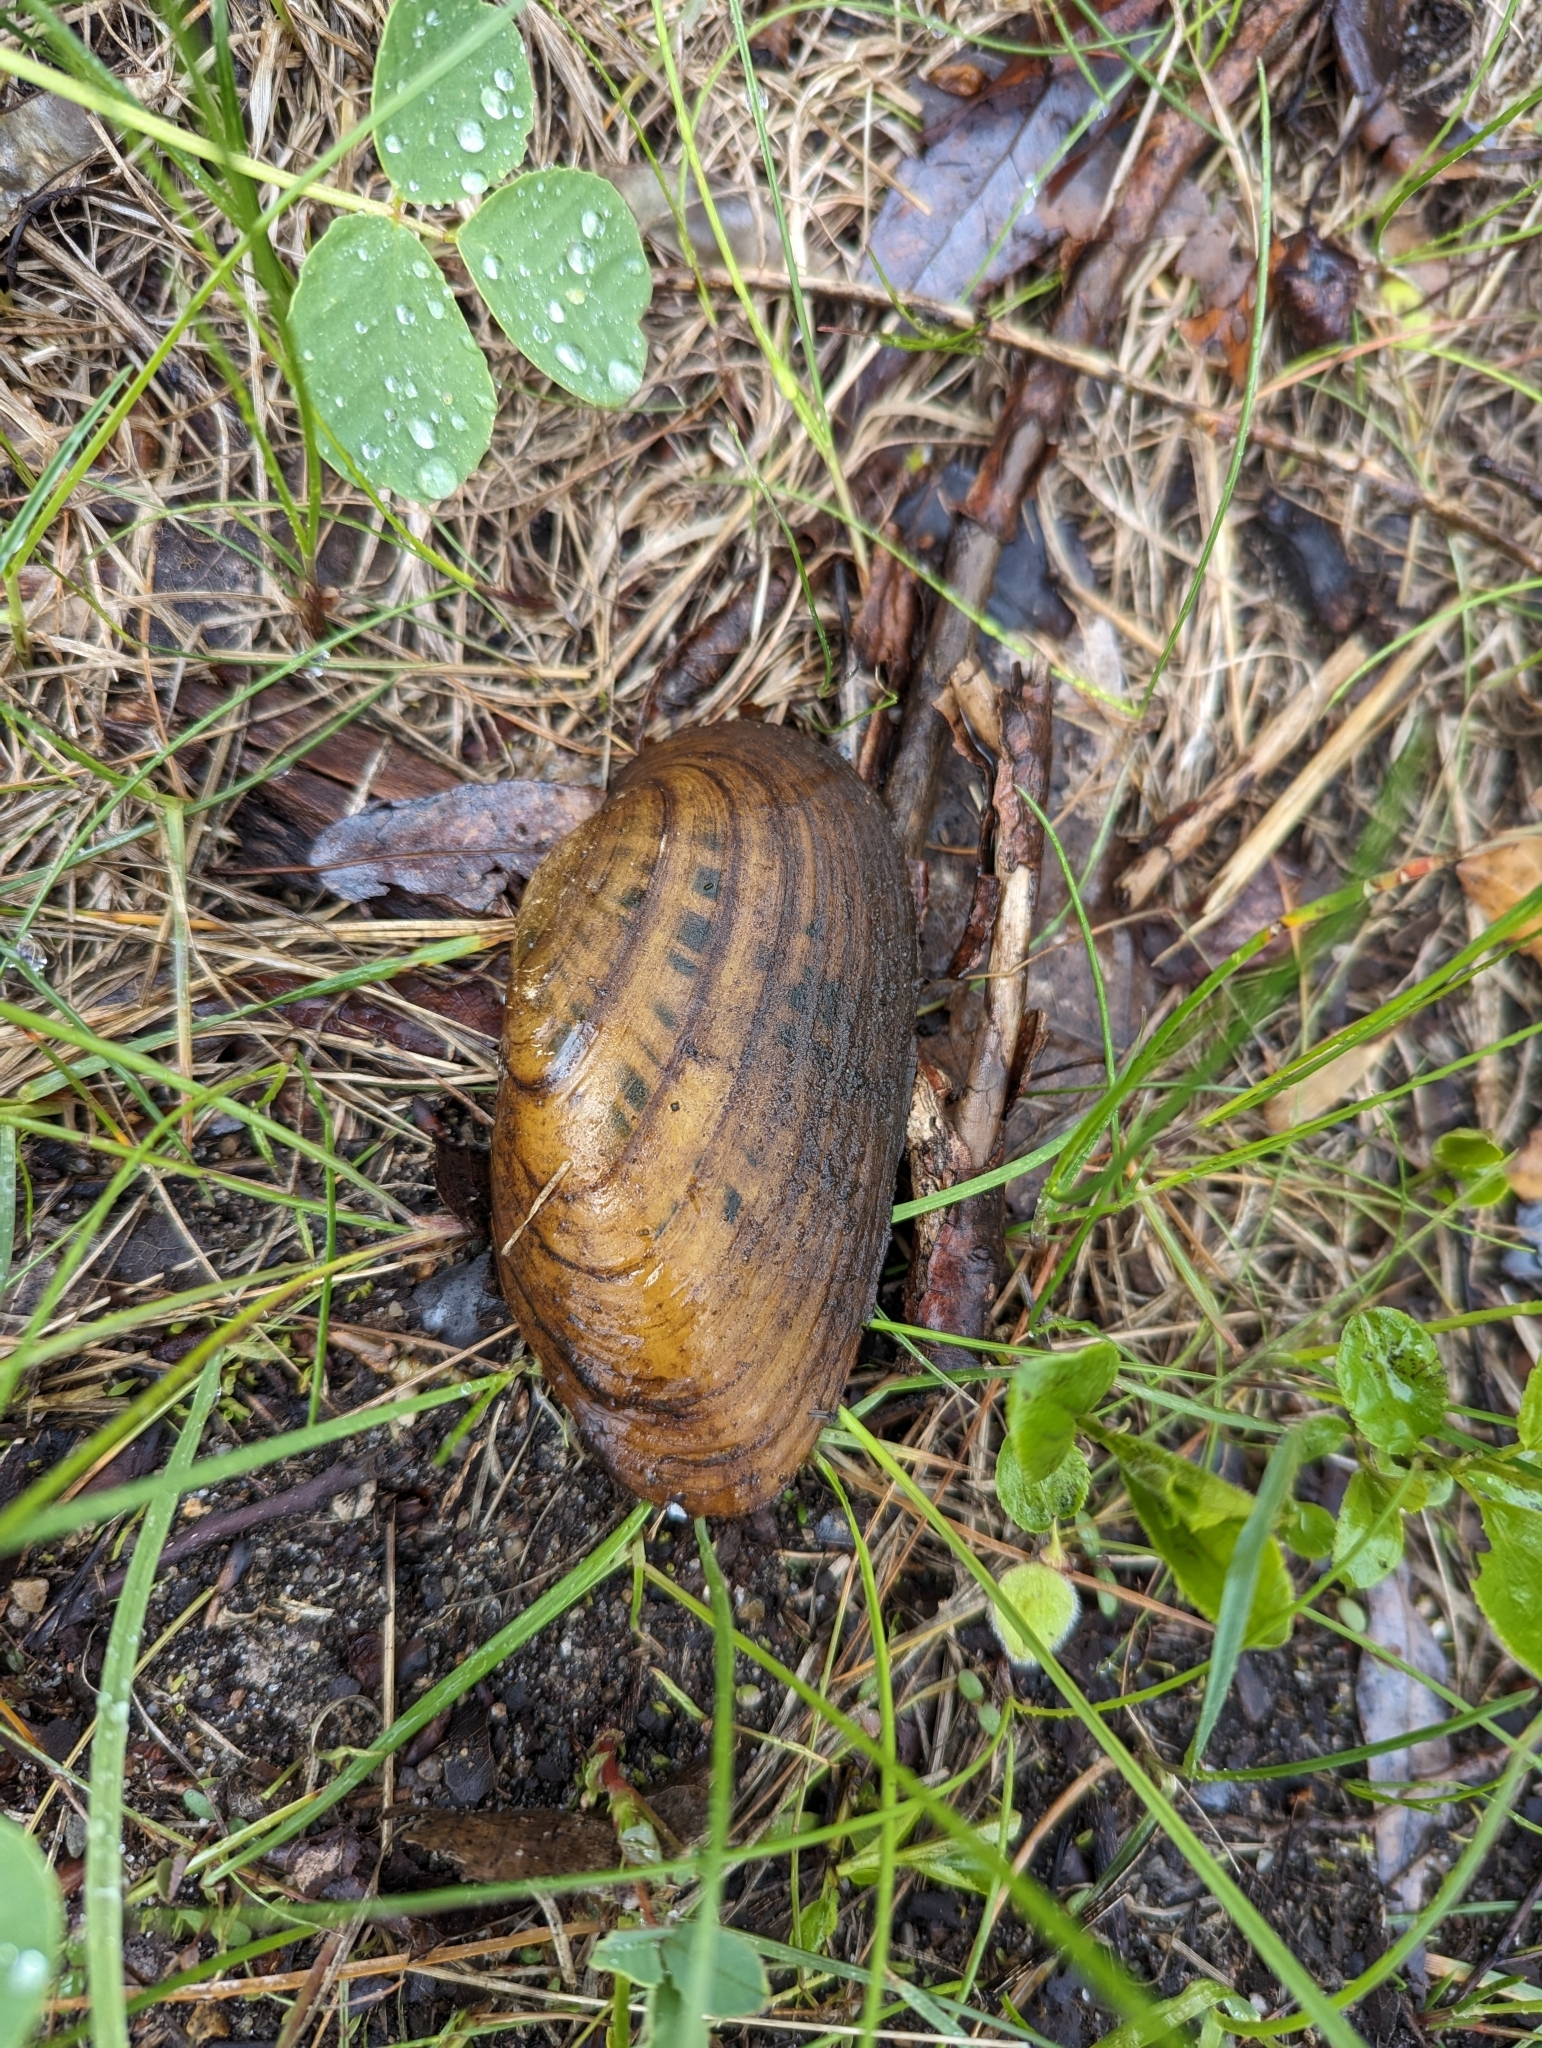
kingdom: Animalia
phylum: Mollusca
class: Bivalvia
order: Unionida
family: Unionidae
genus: Ptychobranchus
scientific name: Ptychobranchus fasciolaris
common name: Kidneyshell
